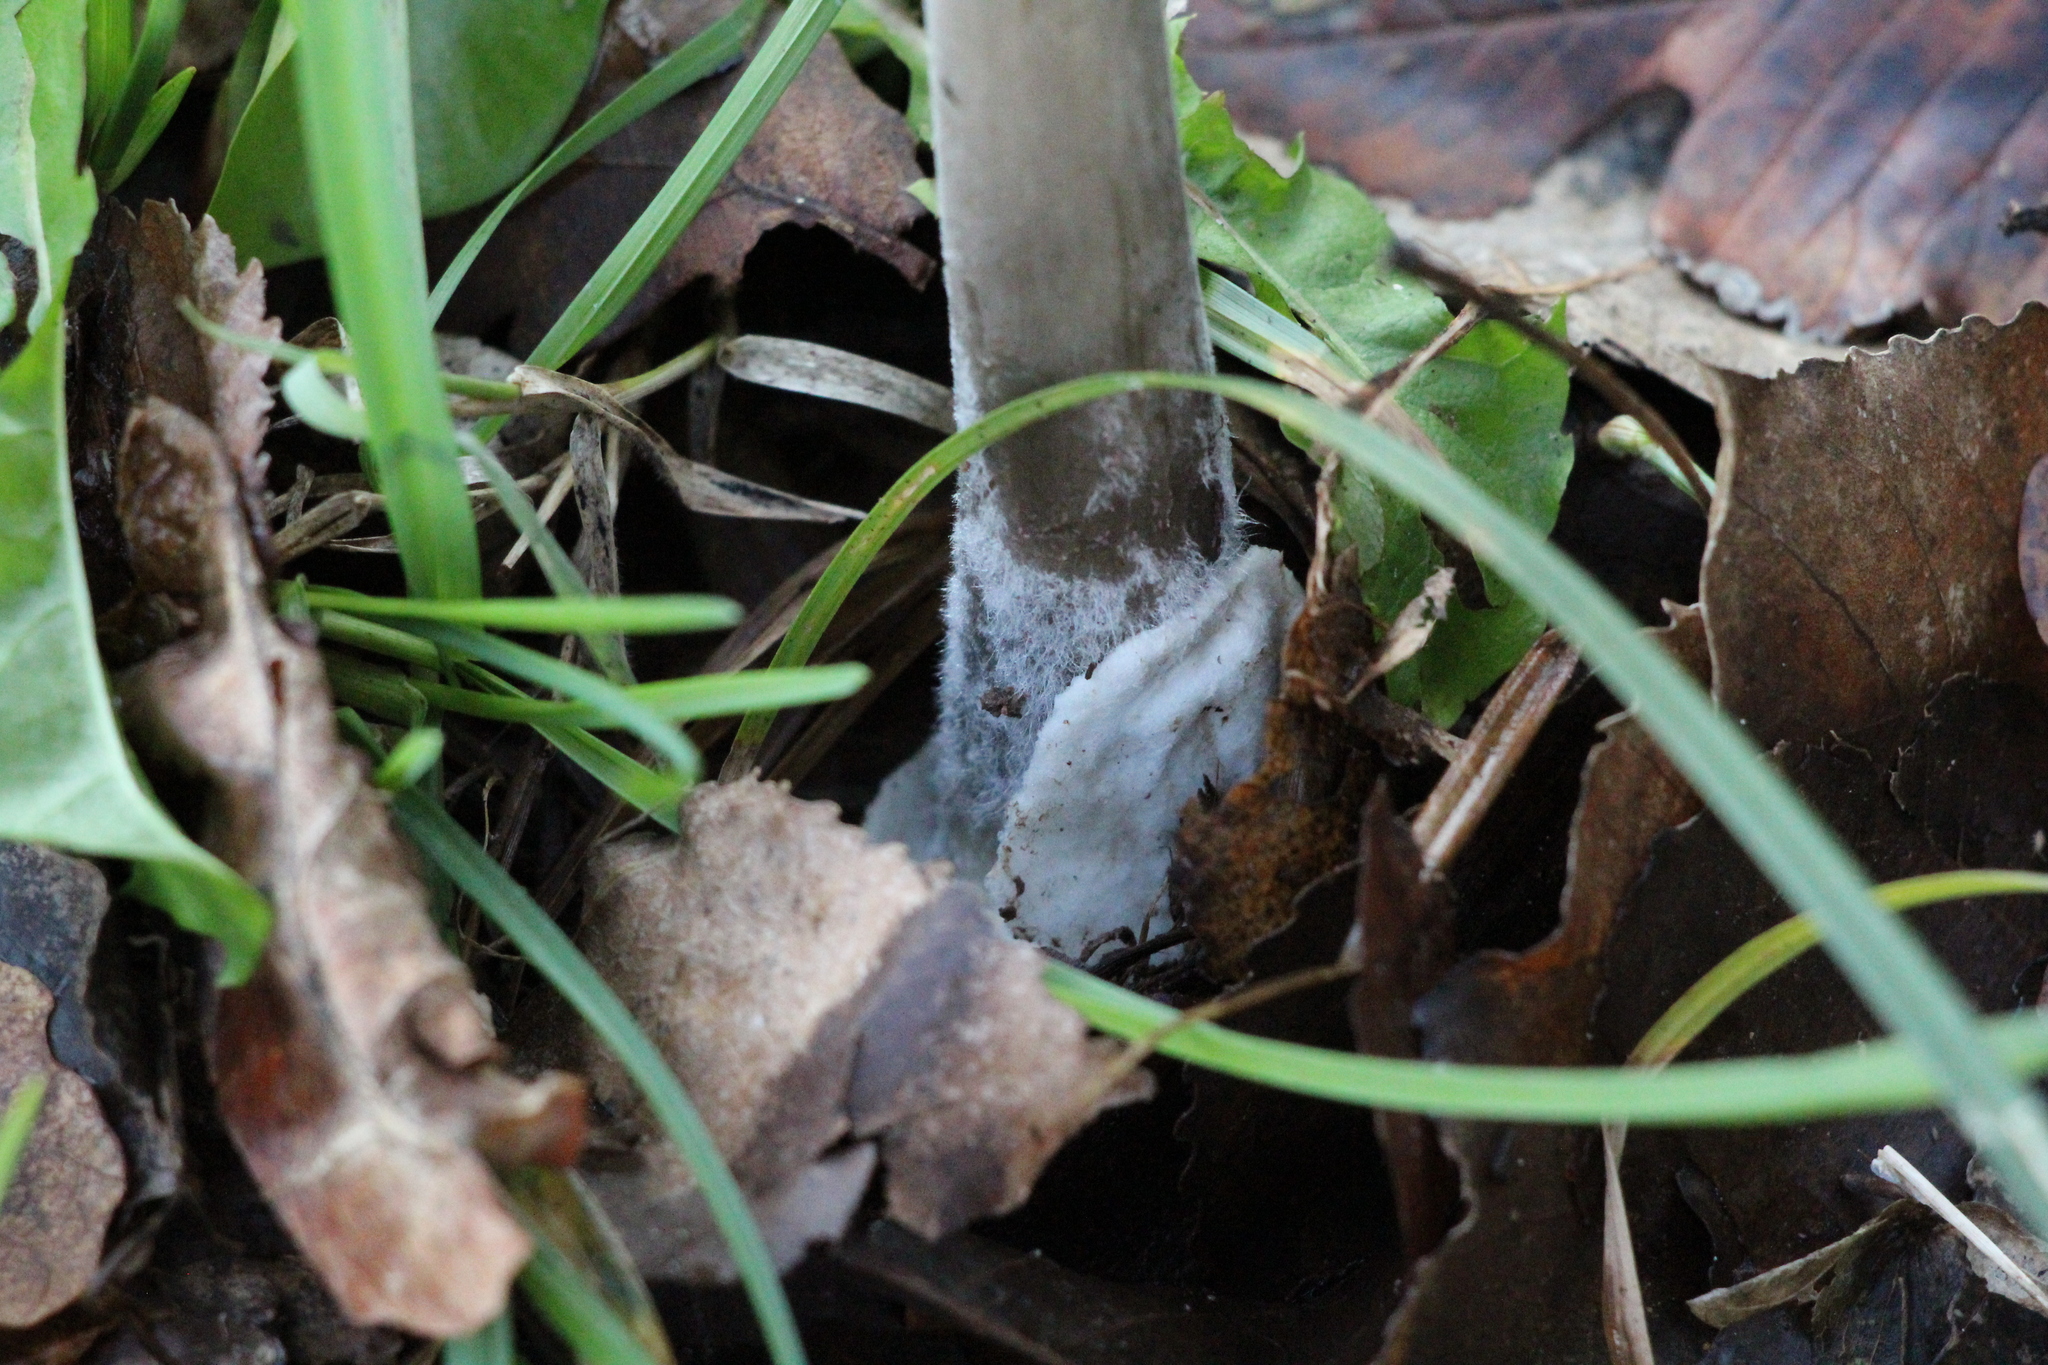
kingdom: Fungi
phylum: Basidiomycota
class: Agaricomycetes
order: Agaricales
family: Pluteaceae
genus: Volvopluteus
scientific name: Volvopluteus gloiocephalus
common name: Stubble rosegill
